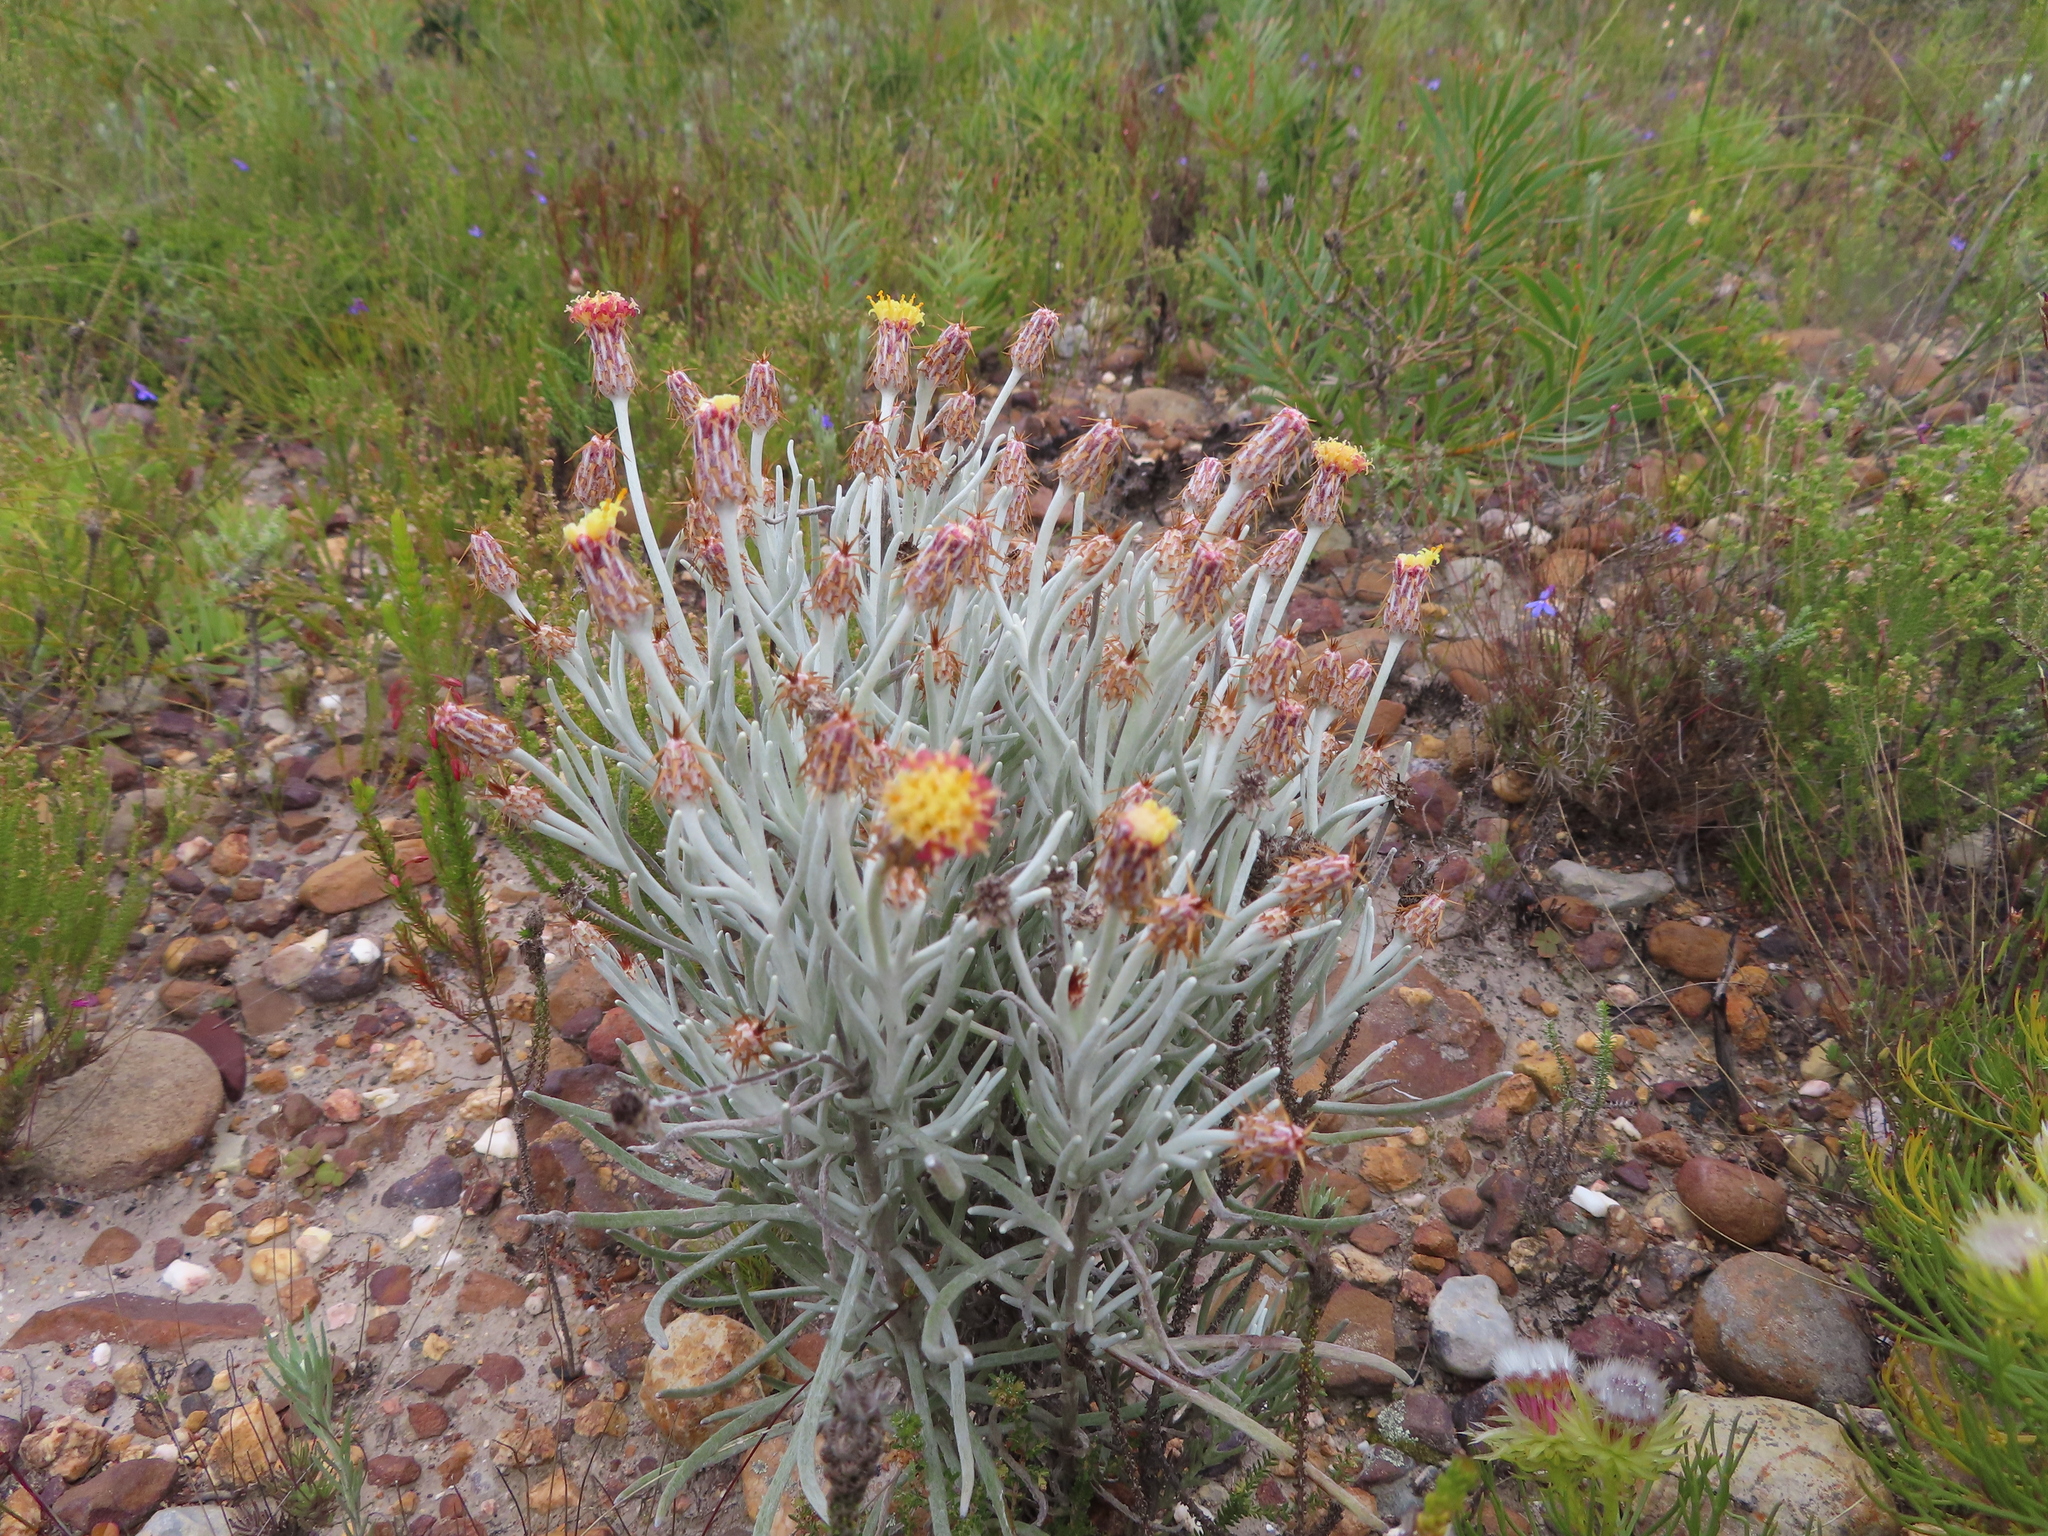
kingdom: Plantae
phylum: Tracheophyta
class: Magnoliopsida
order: Asterales
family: Asteraceae
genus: Syncarpha
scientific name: Syncarpha gnaphaloides
